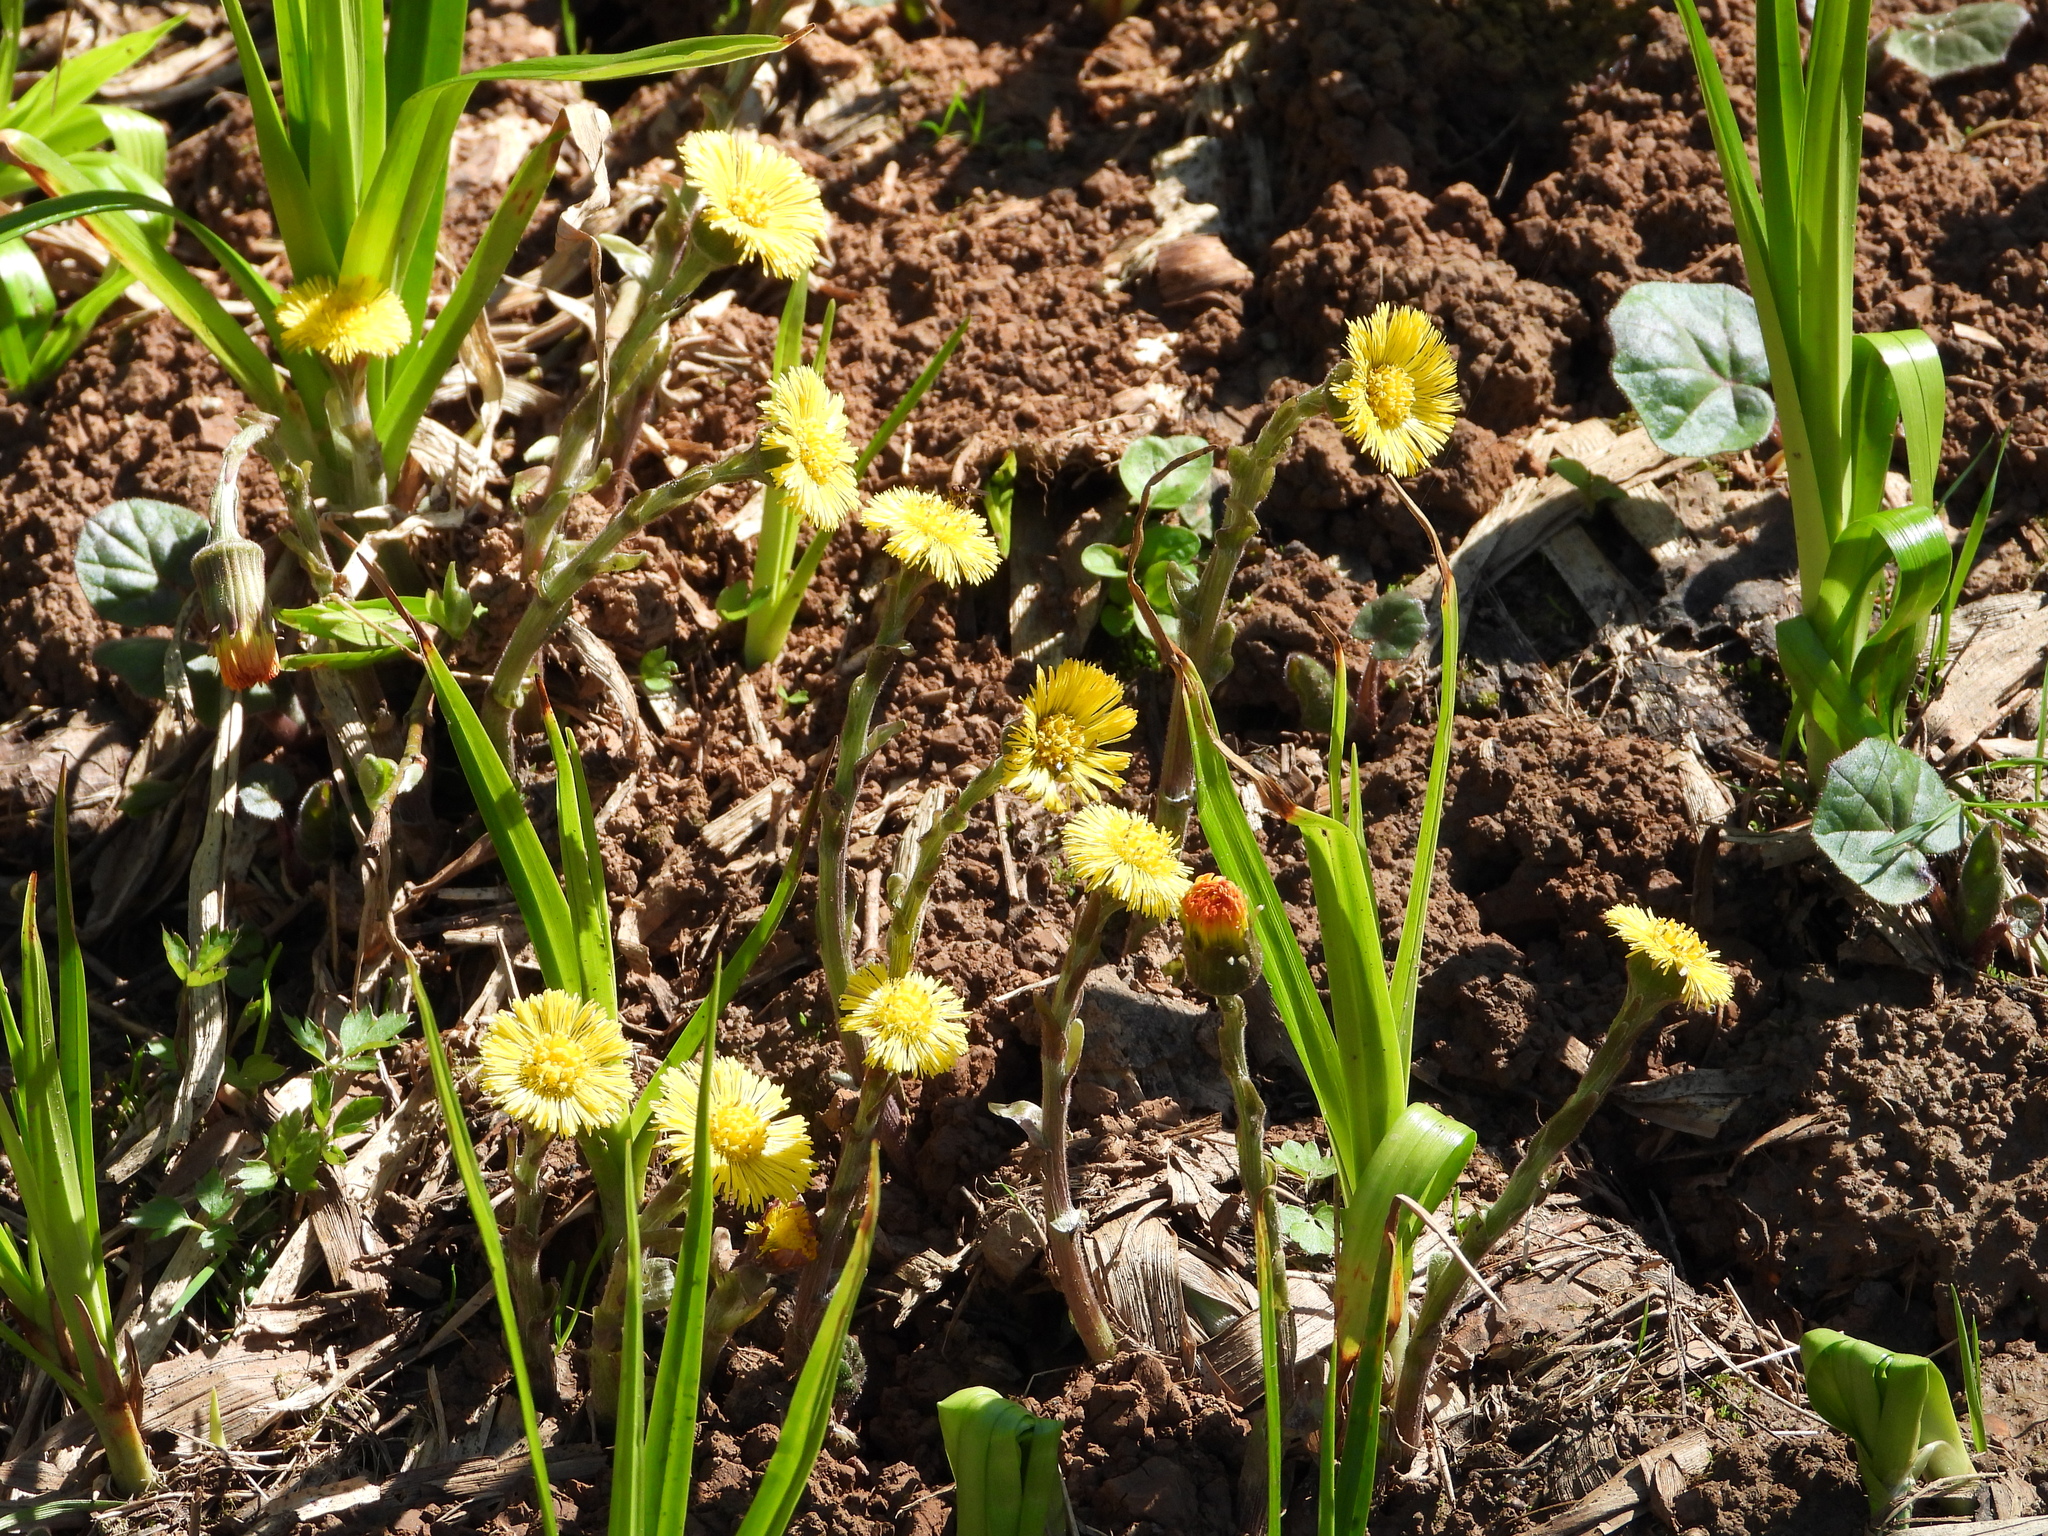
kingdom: Plantae
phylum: Tracheophyta
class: Magnoliopsida
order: Asterales
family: Asteraceae
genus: Tussilago
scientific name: Tussilago farfara
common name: Coltsfoot
